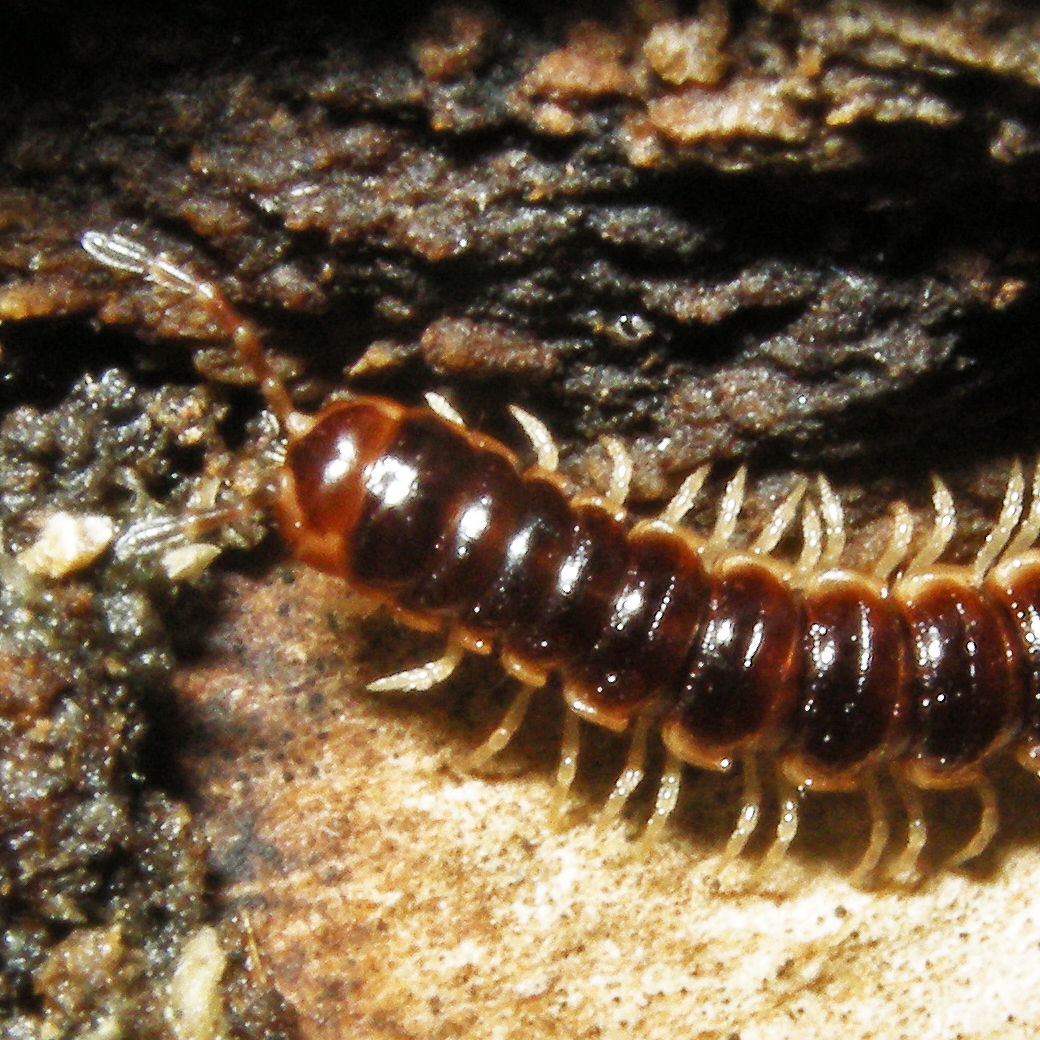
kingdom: Animalia
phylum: Arthropoda
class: Diplopoda
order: Polydesmida
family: Paradoxosomatidae
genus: Oxidus
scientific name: Oxidus gracilis
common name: Greenhouse millipede
